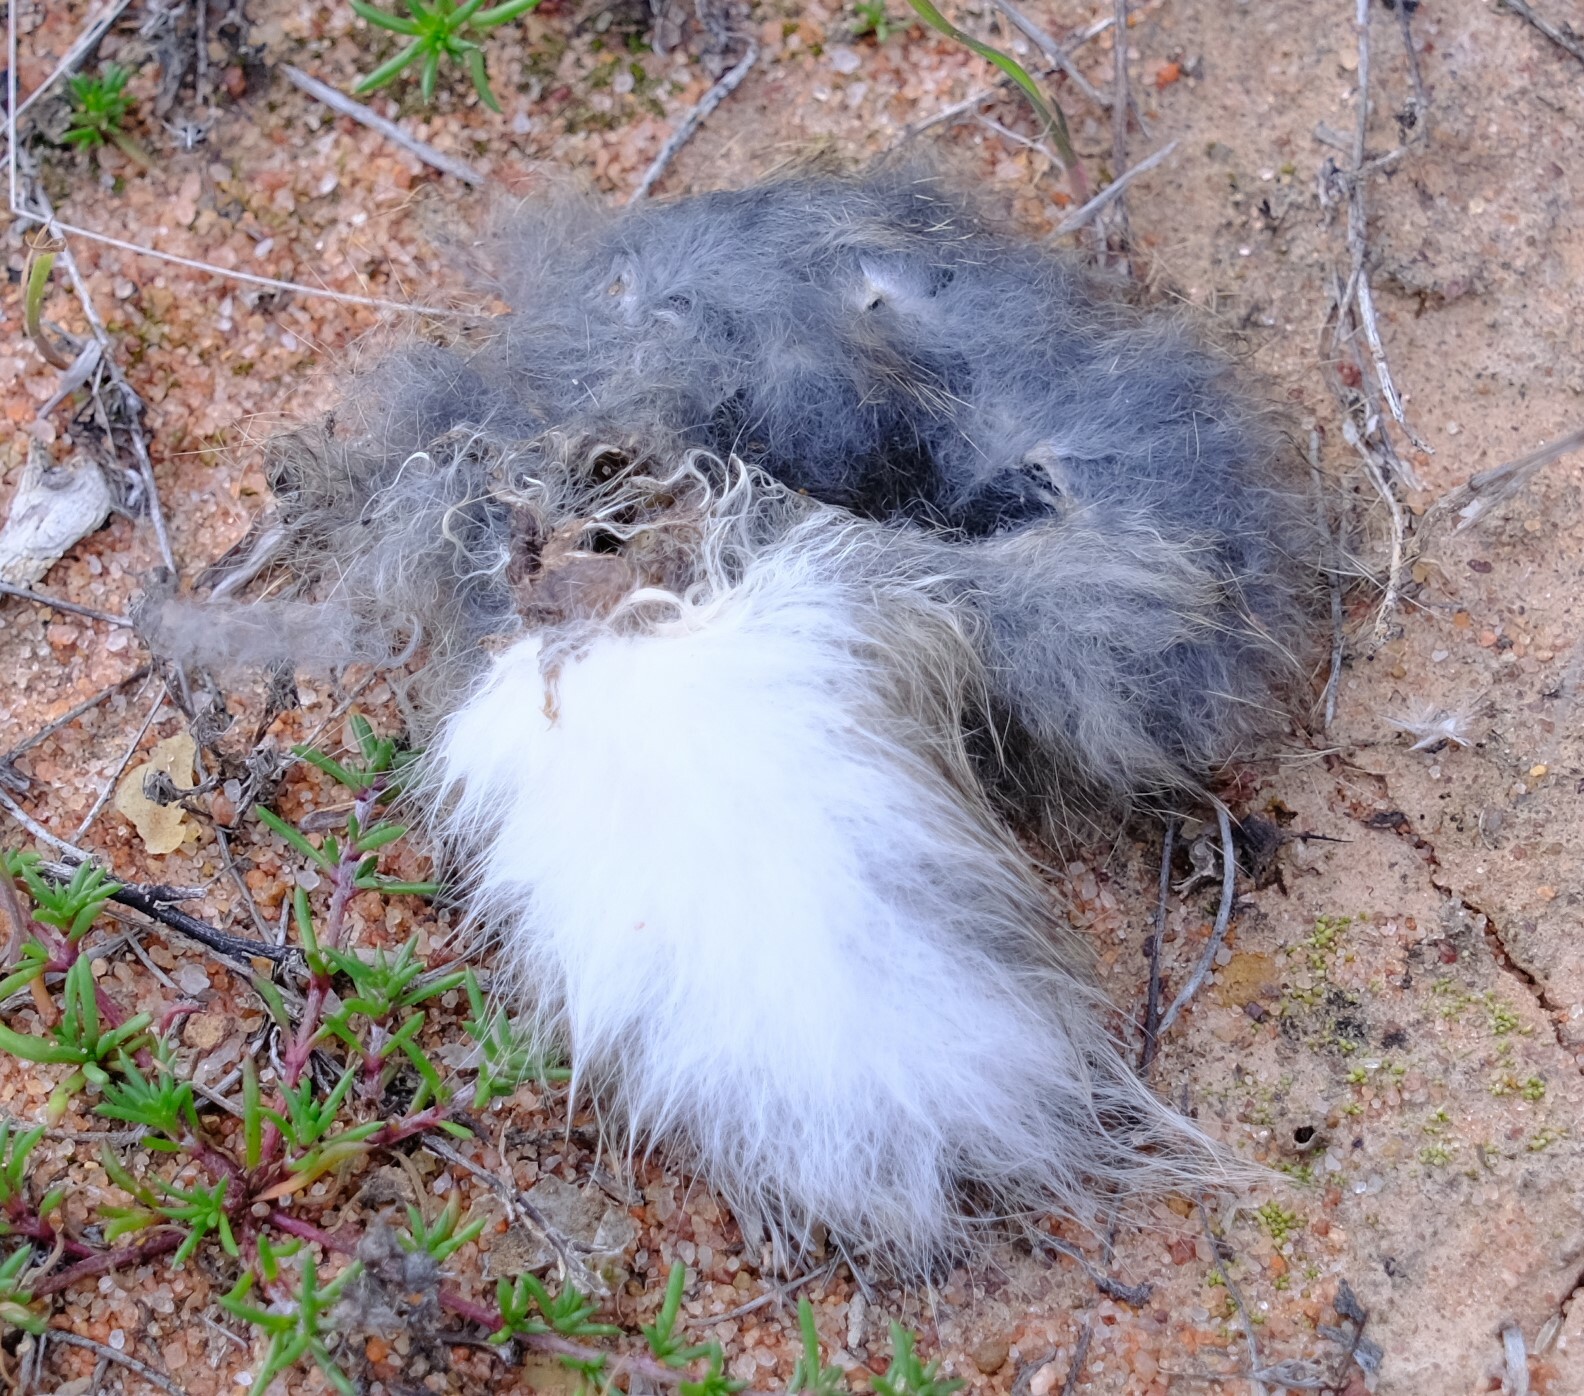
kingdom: Animalia
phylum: Chordata
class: Mammalia
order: Lagomorpha
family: Leporidae
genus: Oryctolagus
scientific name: Oryctolagus cuniculus
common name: European rabbit
